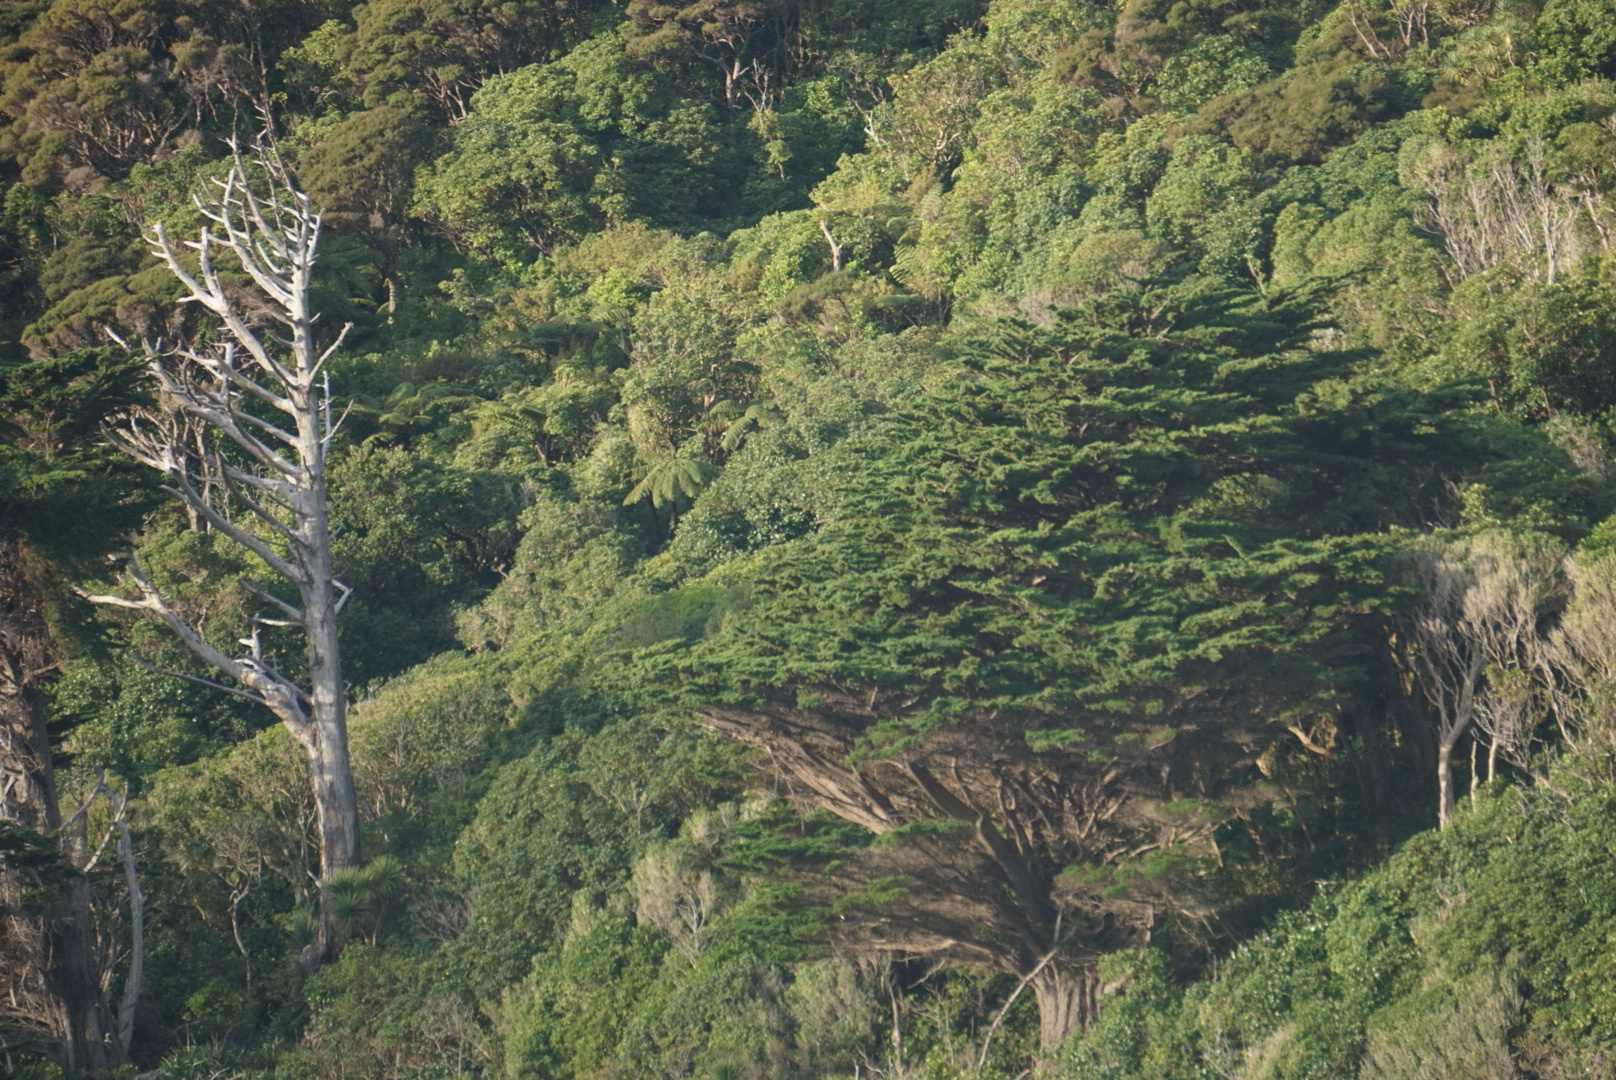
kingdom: Plantae
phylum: Tracheophyta
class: Pinopsida
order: Pinales
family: Cupressaceae
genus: Cupressus
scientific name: Cupressus macrocarpa
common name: Monterey cypress
